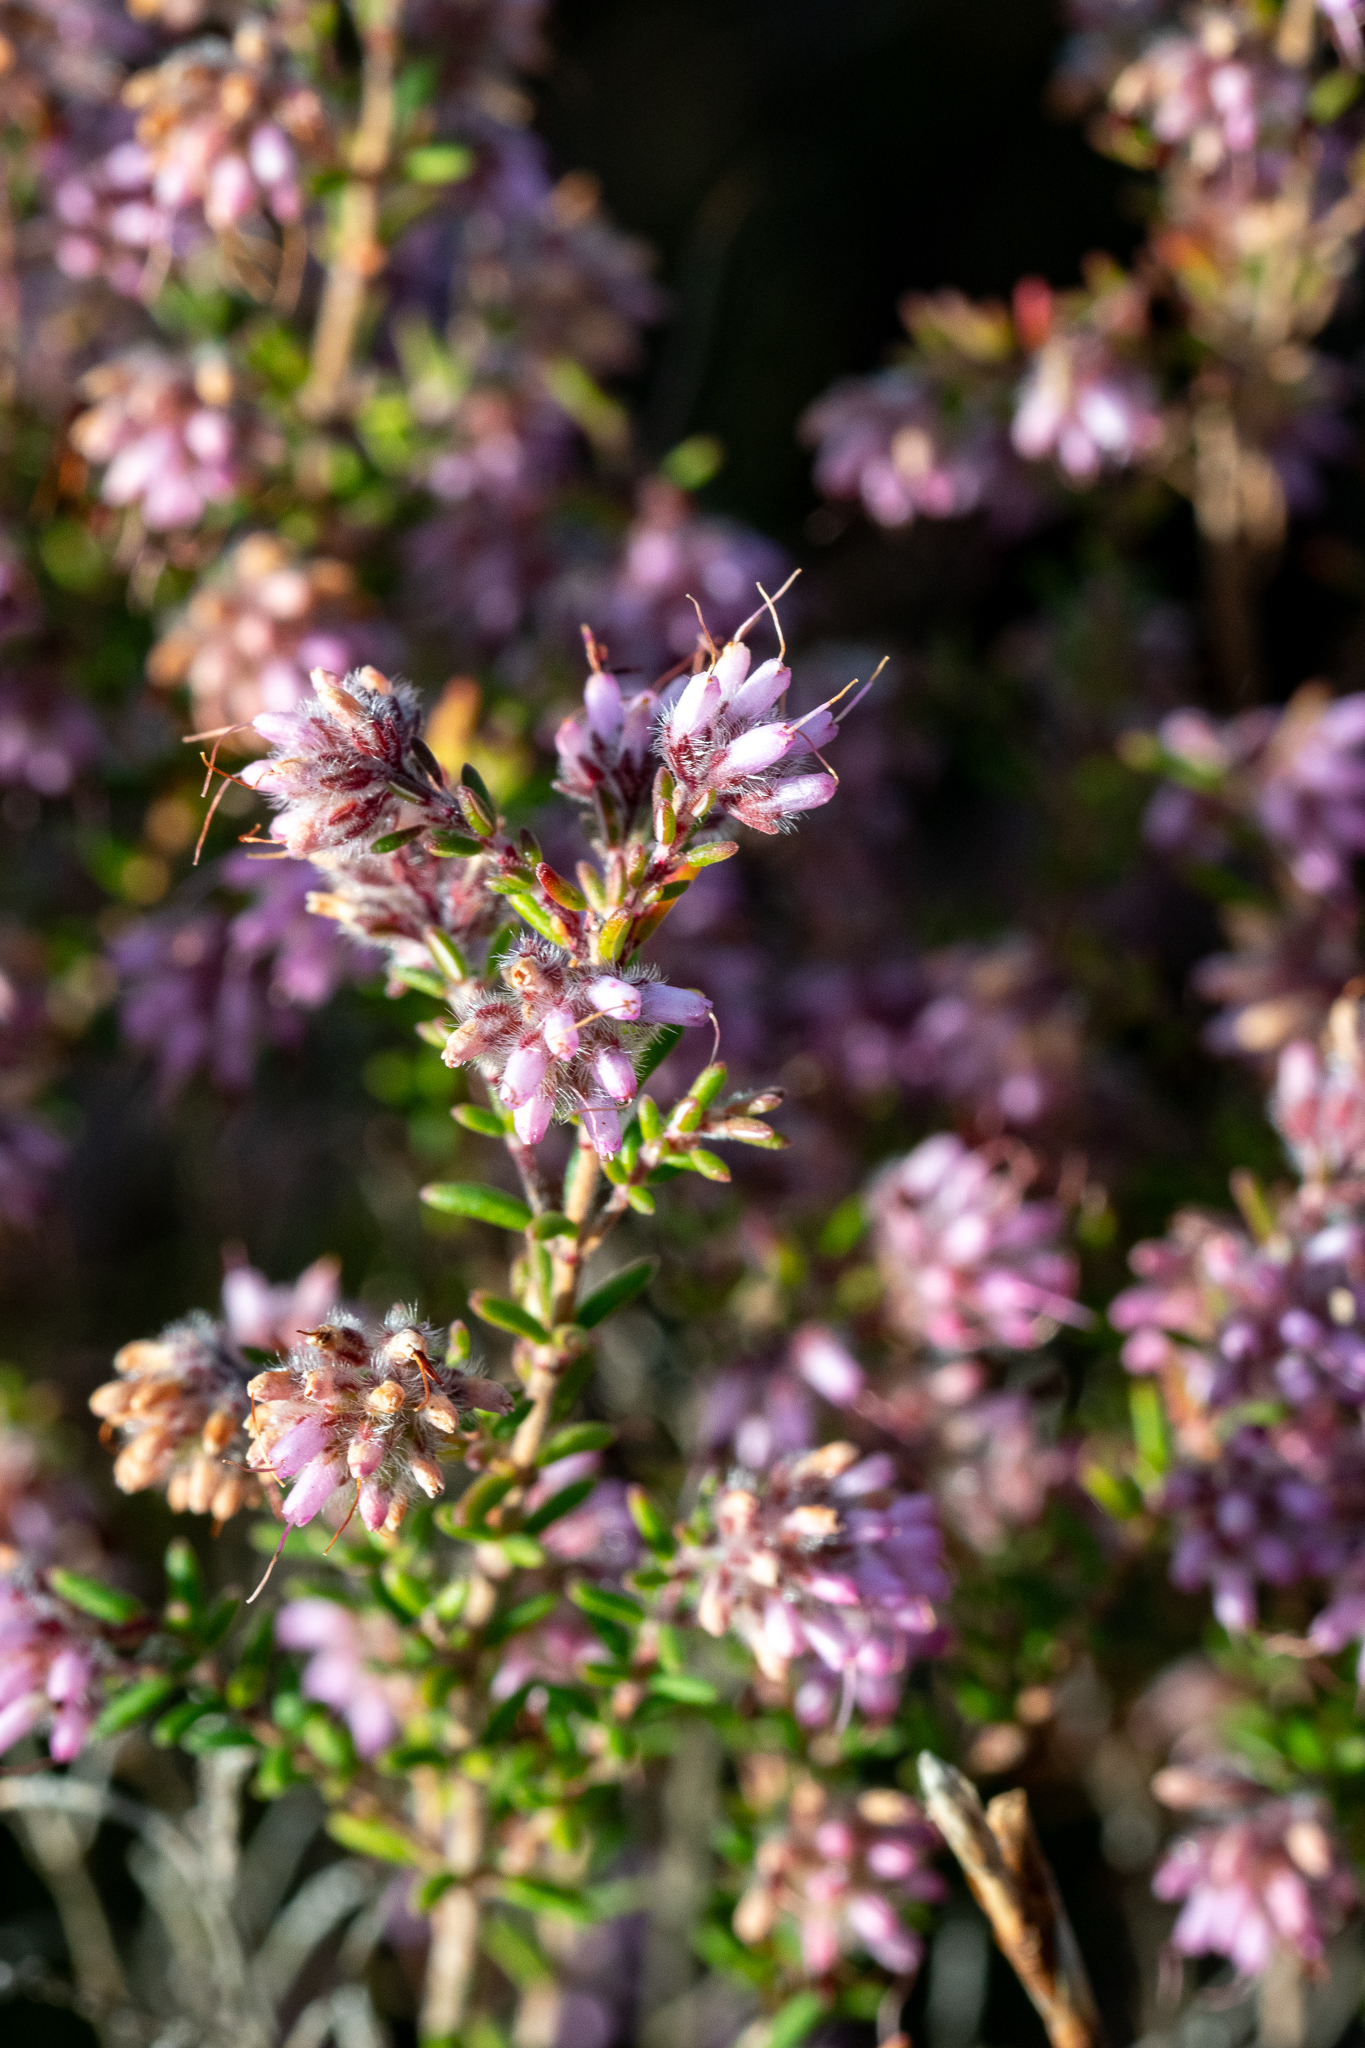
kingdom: Plantae
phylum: Tracheophyta
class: Magnoliopsida
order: Ericales
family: Ericaceae
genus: Erica
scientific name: Erica eriocephala
